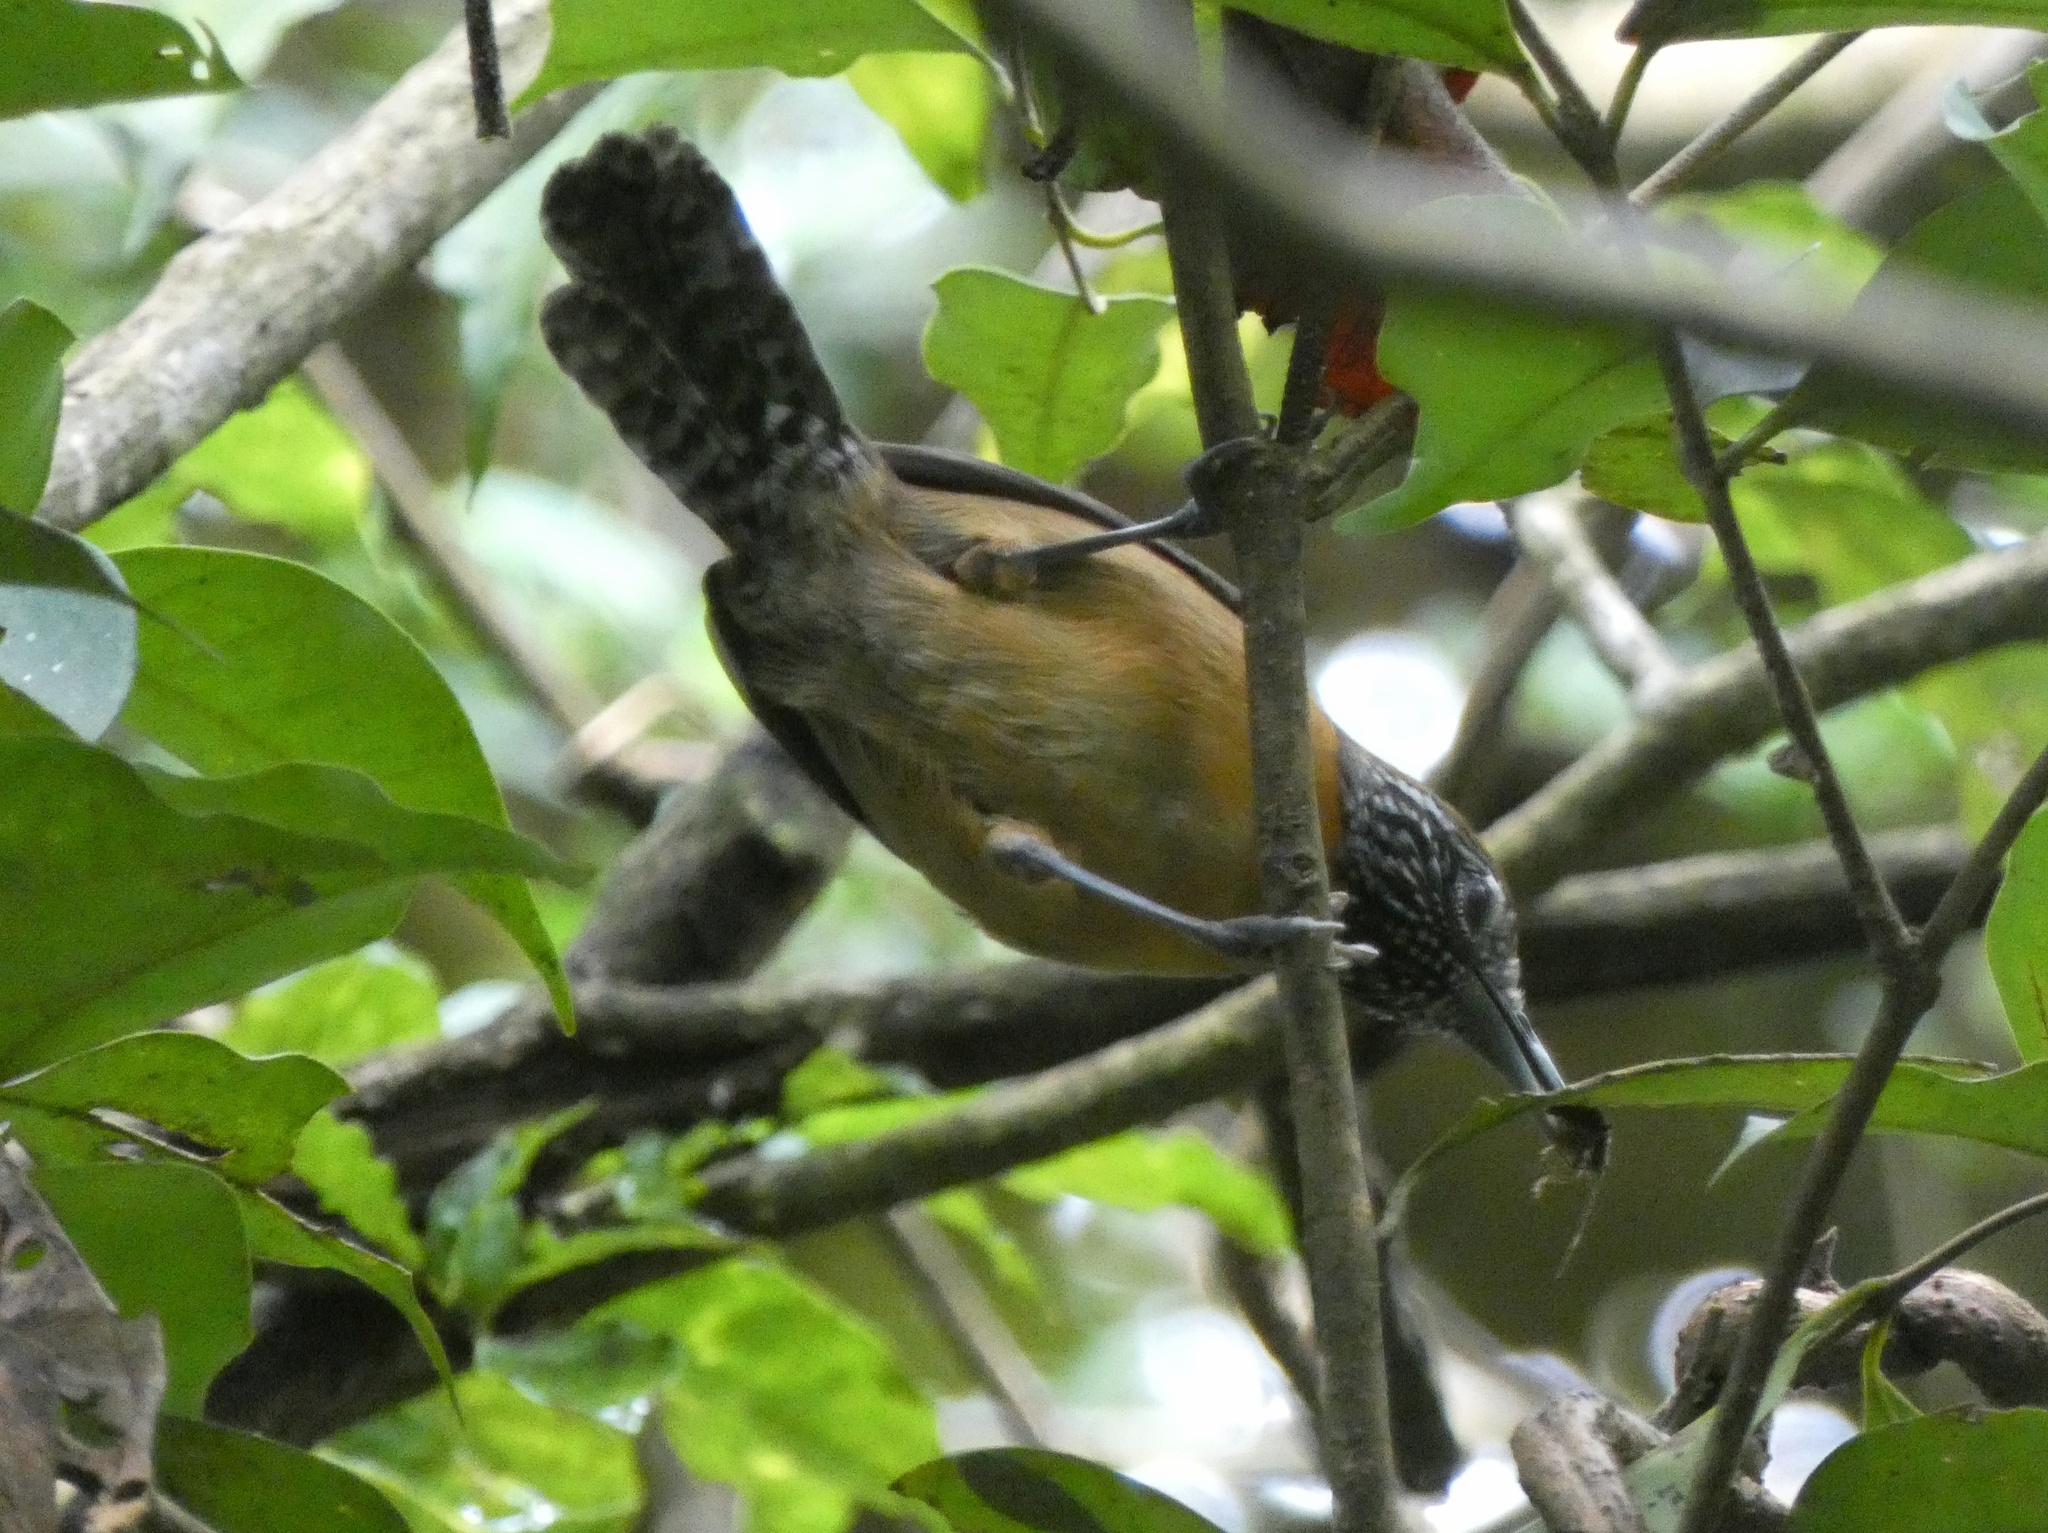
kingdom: Animalia
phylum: Chordata
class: Aves
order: Passeriformes
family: Troglodytidae
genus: Pheugopedius
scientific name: Pheugopedius rutilus
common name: Rufous-breasted wren
